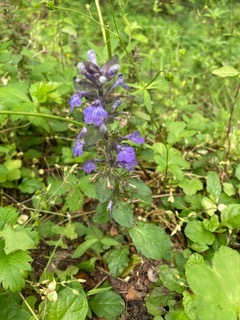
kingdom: Plantae
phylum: Tracheophyta
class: Magnoliopsida
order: Lamiales
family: Lamiaceae
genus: Ajuga
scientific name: Ajuga reptans
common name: Bugle
